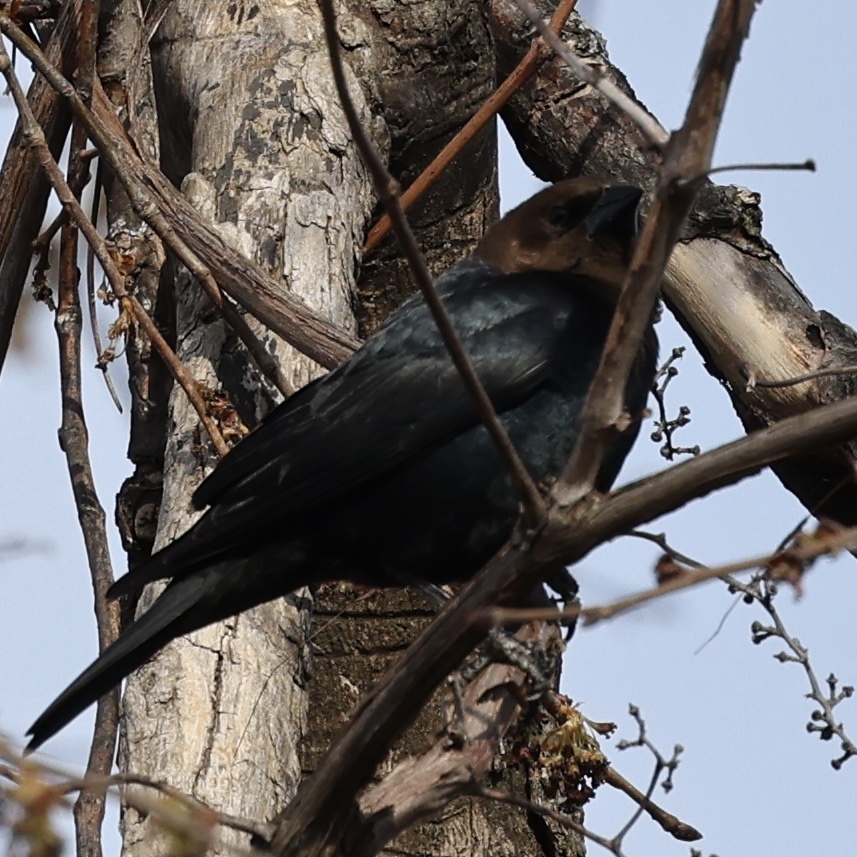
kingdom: Animalia
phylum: Chordata
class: Aves
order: Passeriformes
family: Icteridae
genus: Molothrus
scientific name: Molothrus ater
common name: Brown-headed cowbird
